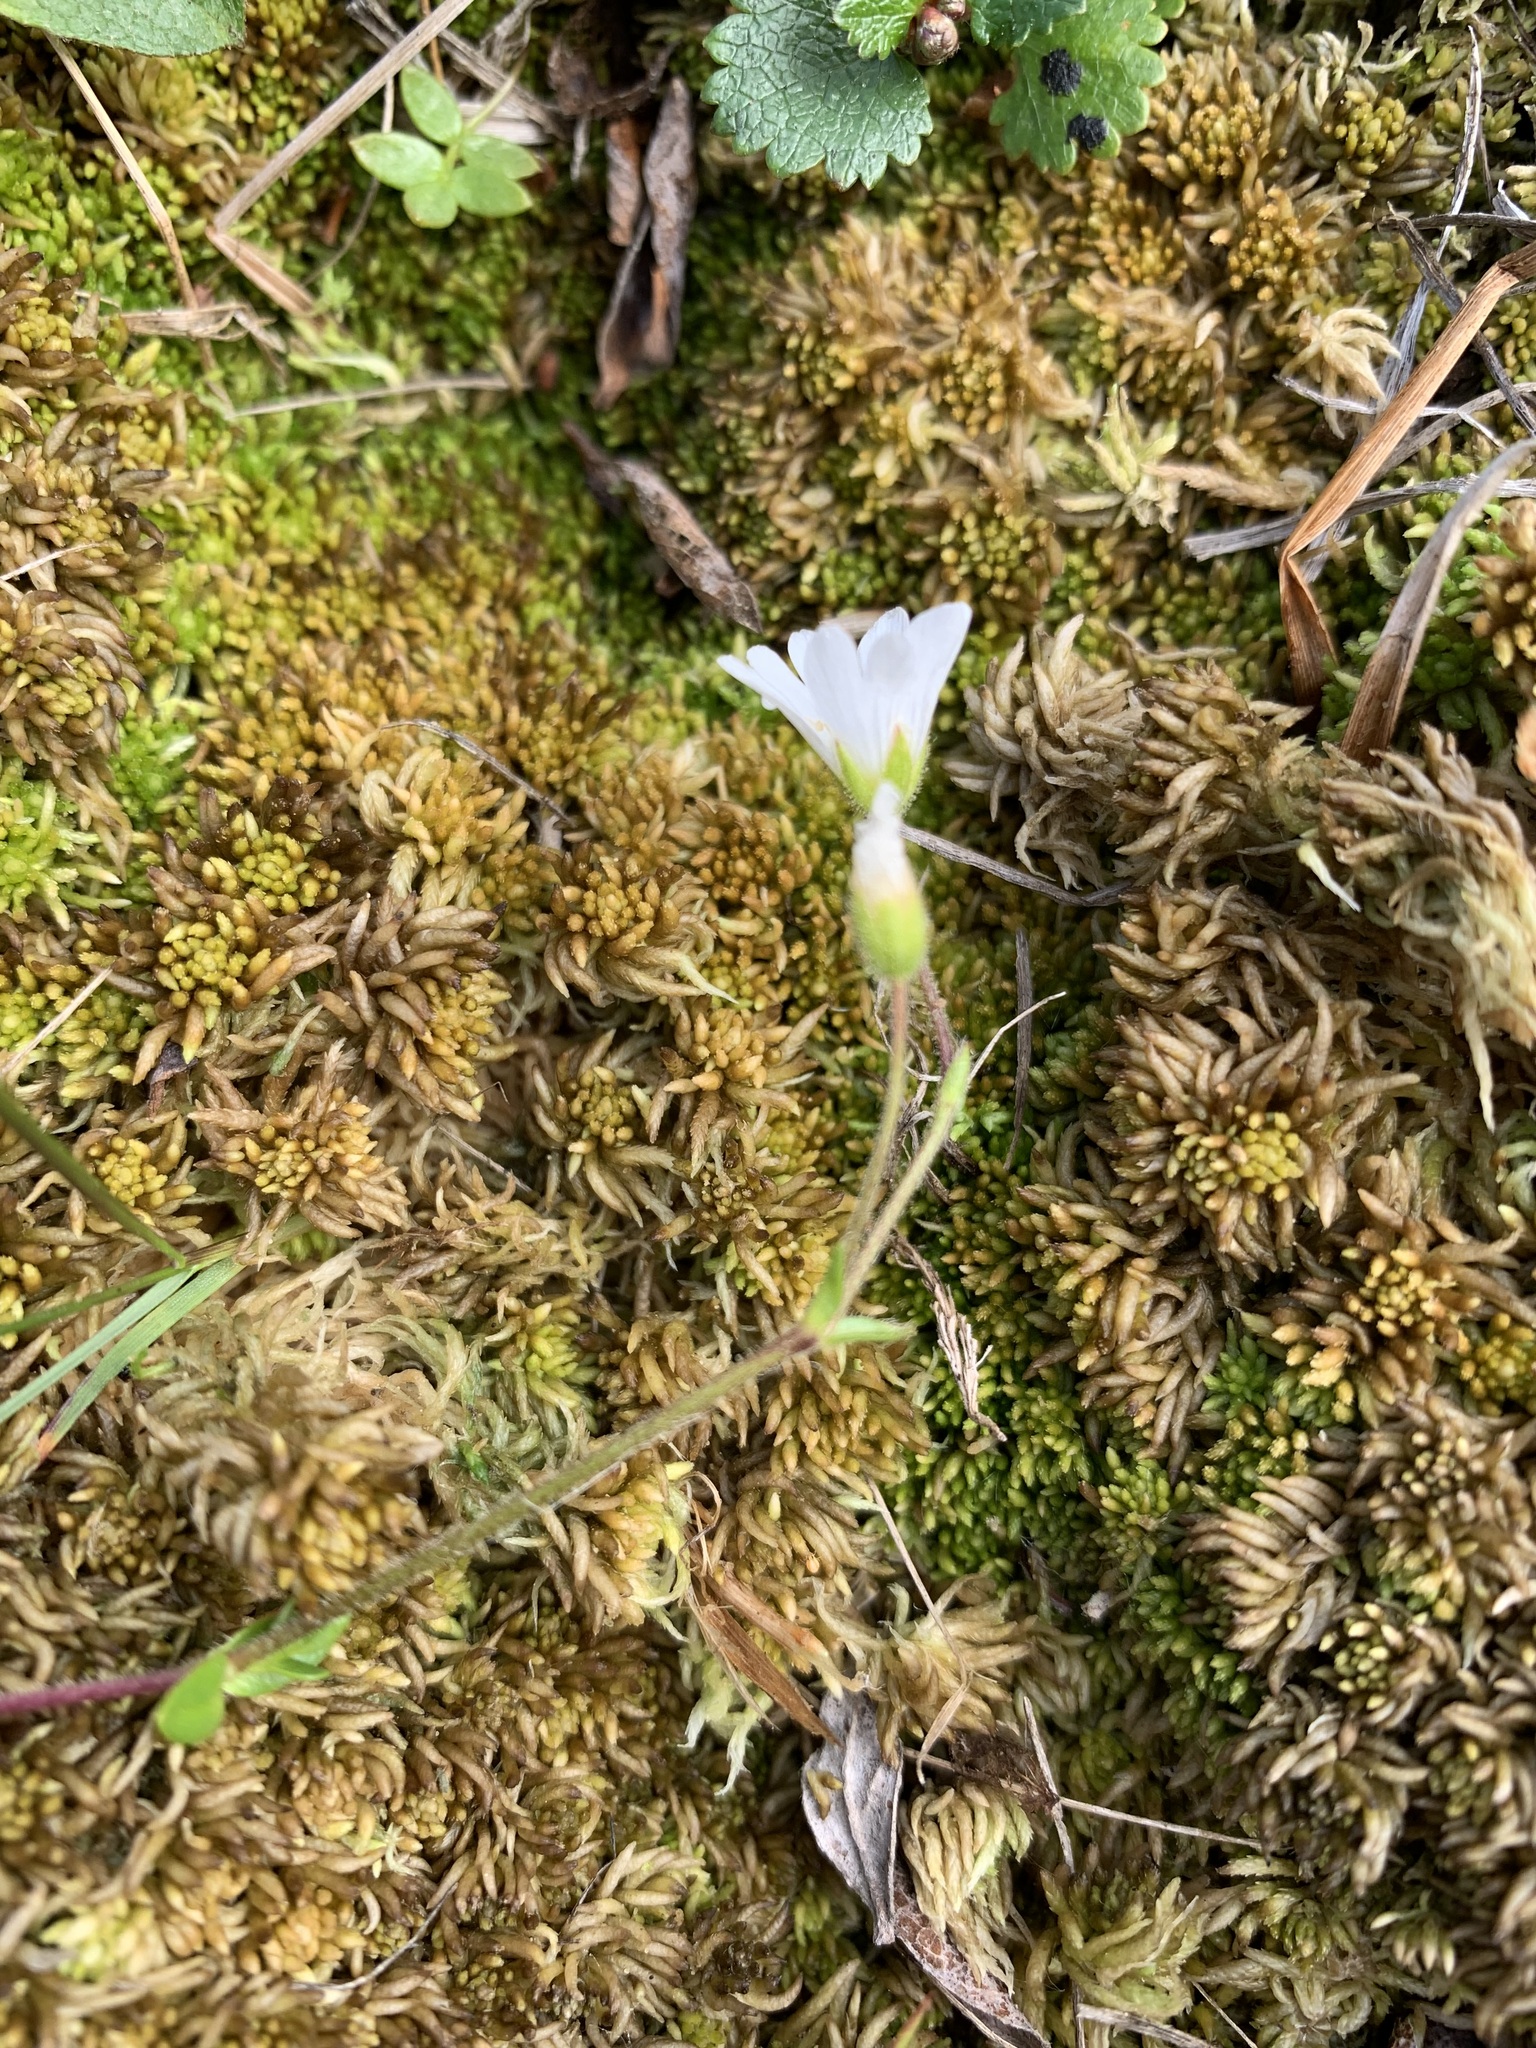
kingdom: Plantae
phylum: Tracheophyta
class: Magnoliopsida
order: Caryophyllales
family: Caryophyllaceae
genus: Cerastium
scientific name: Cerastium regelii
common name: Regel's chickweed
